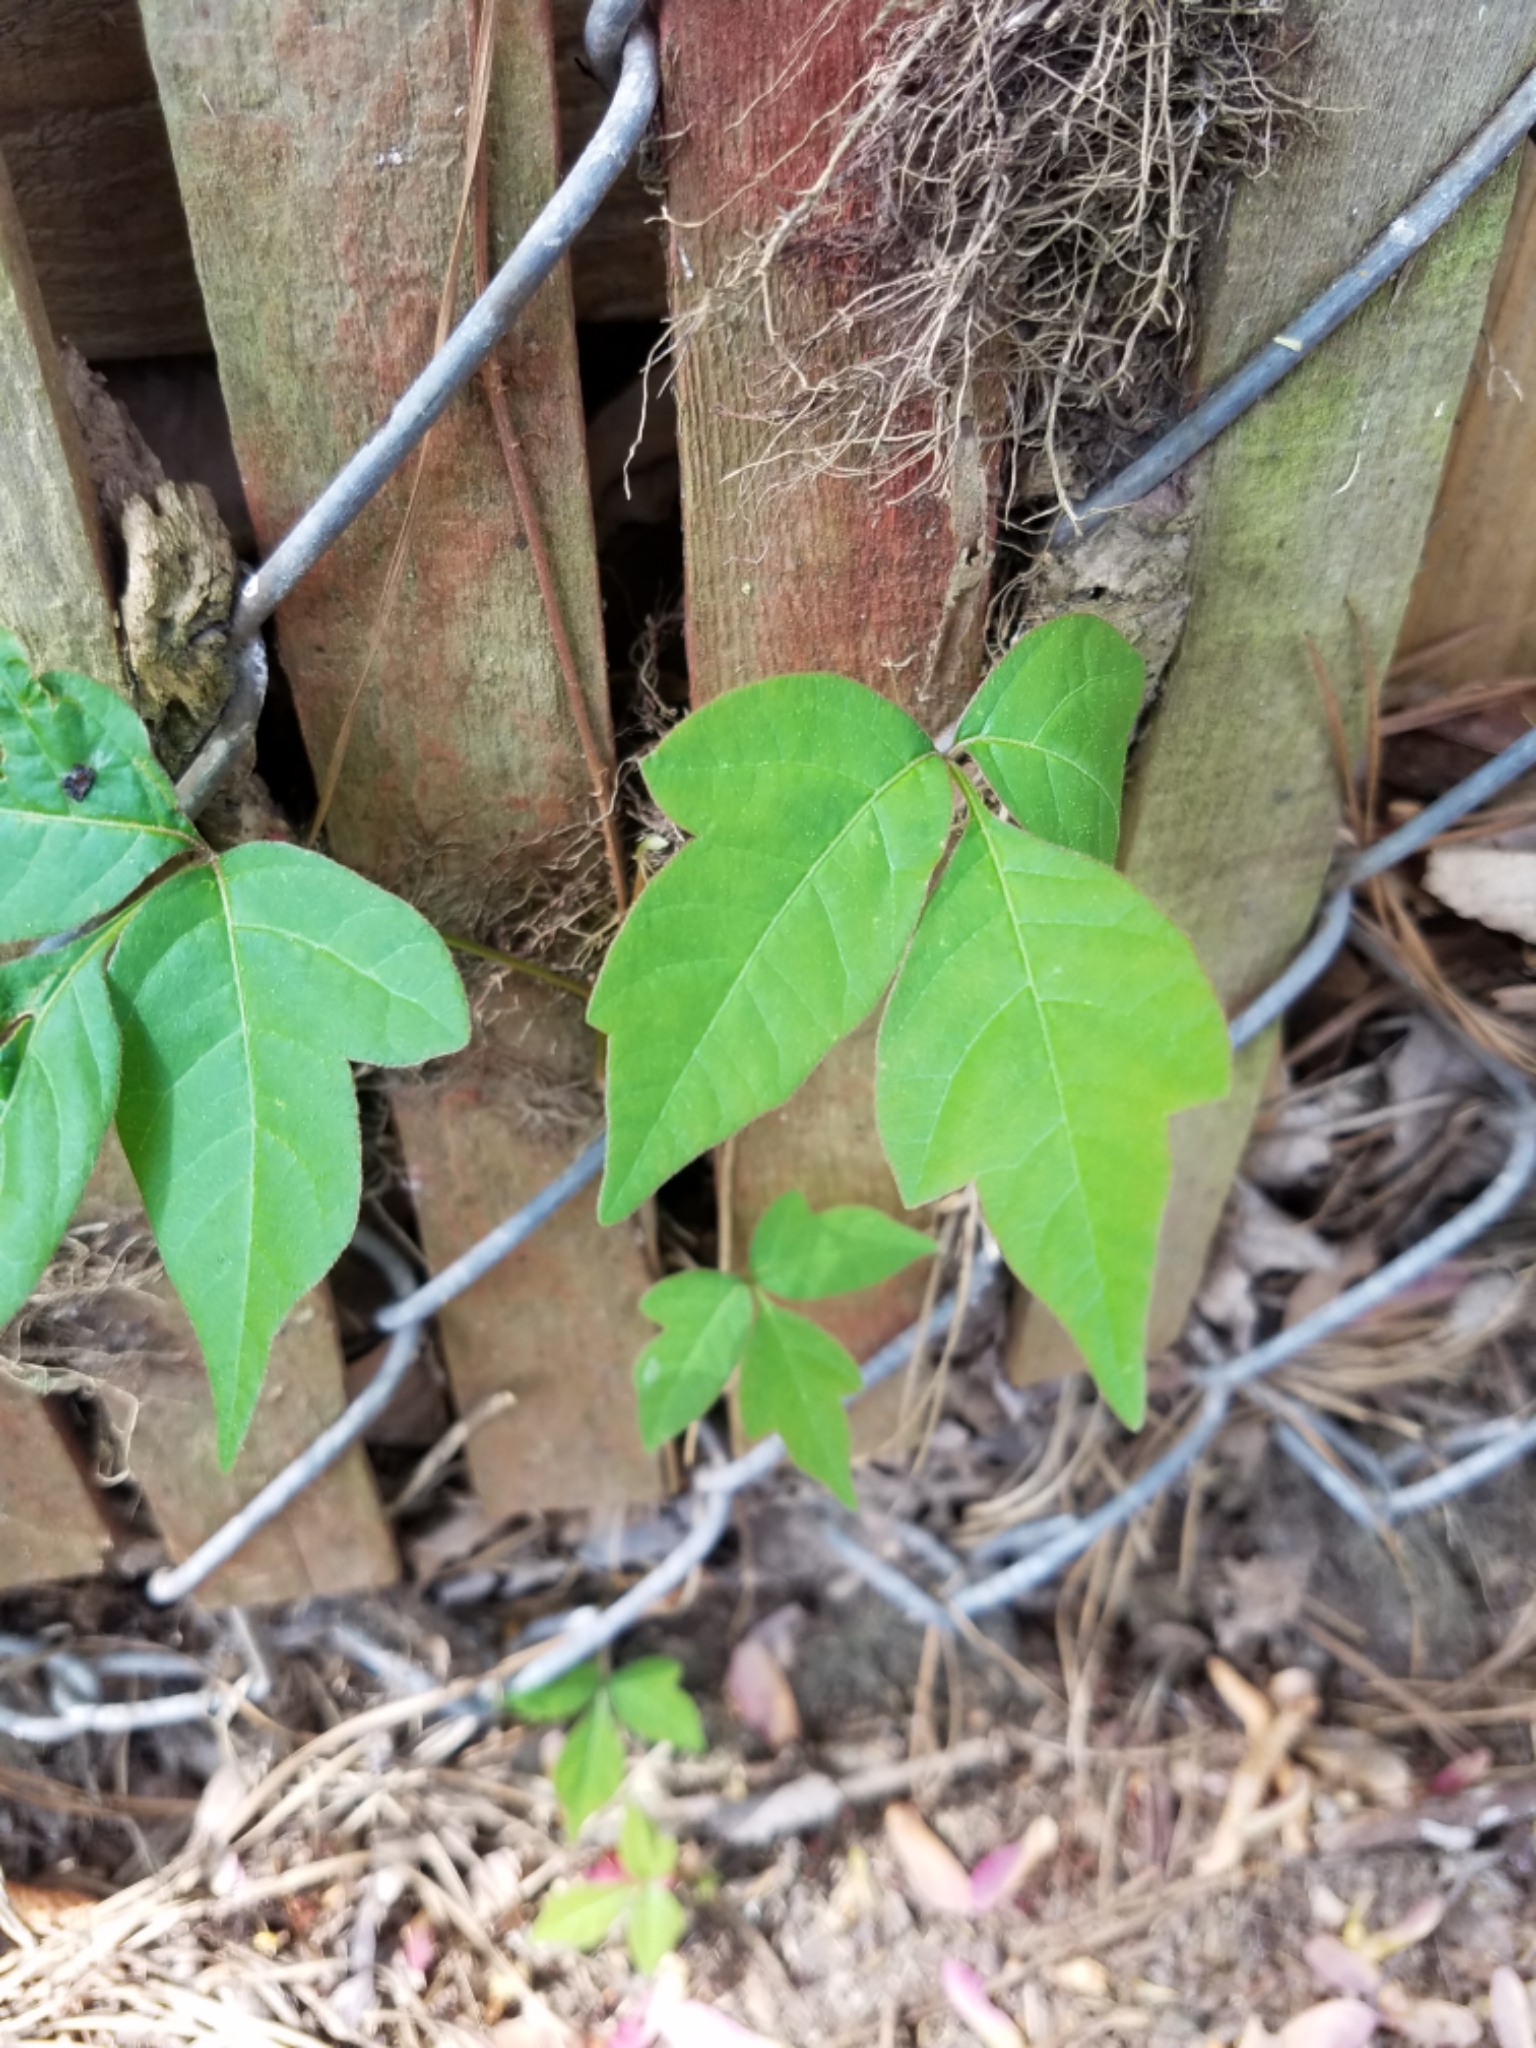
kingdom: Plantae
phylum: Tracheophyta
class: Magnoliopsida
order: Sapindales
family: Anacardiaceae
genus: Toxicodendron
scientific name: Toxicodendron radicans
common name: Poison ivy
